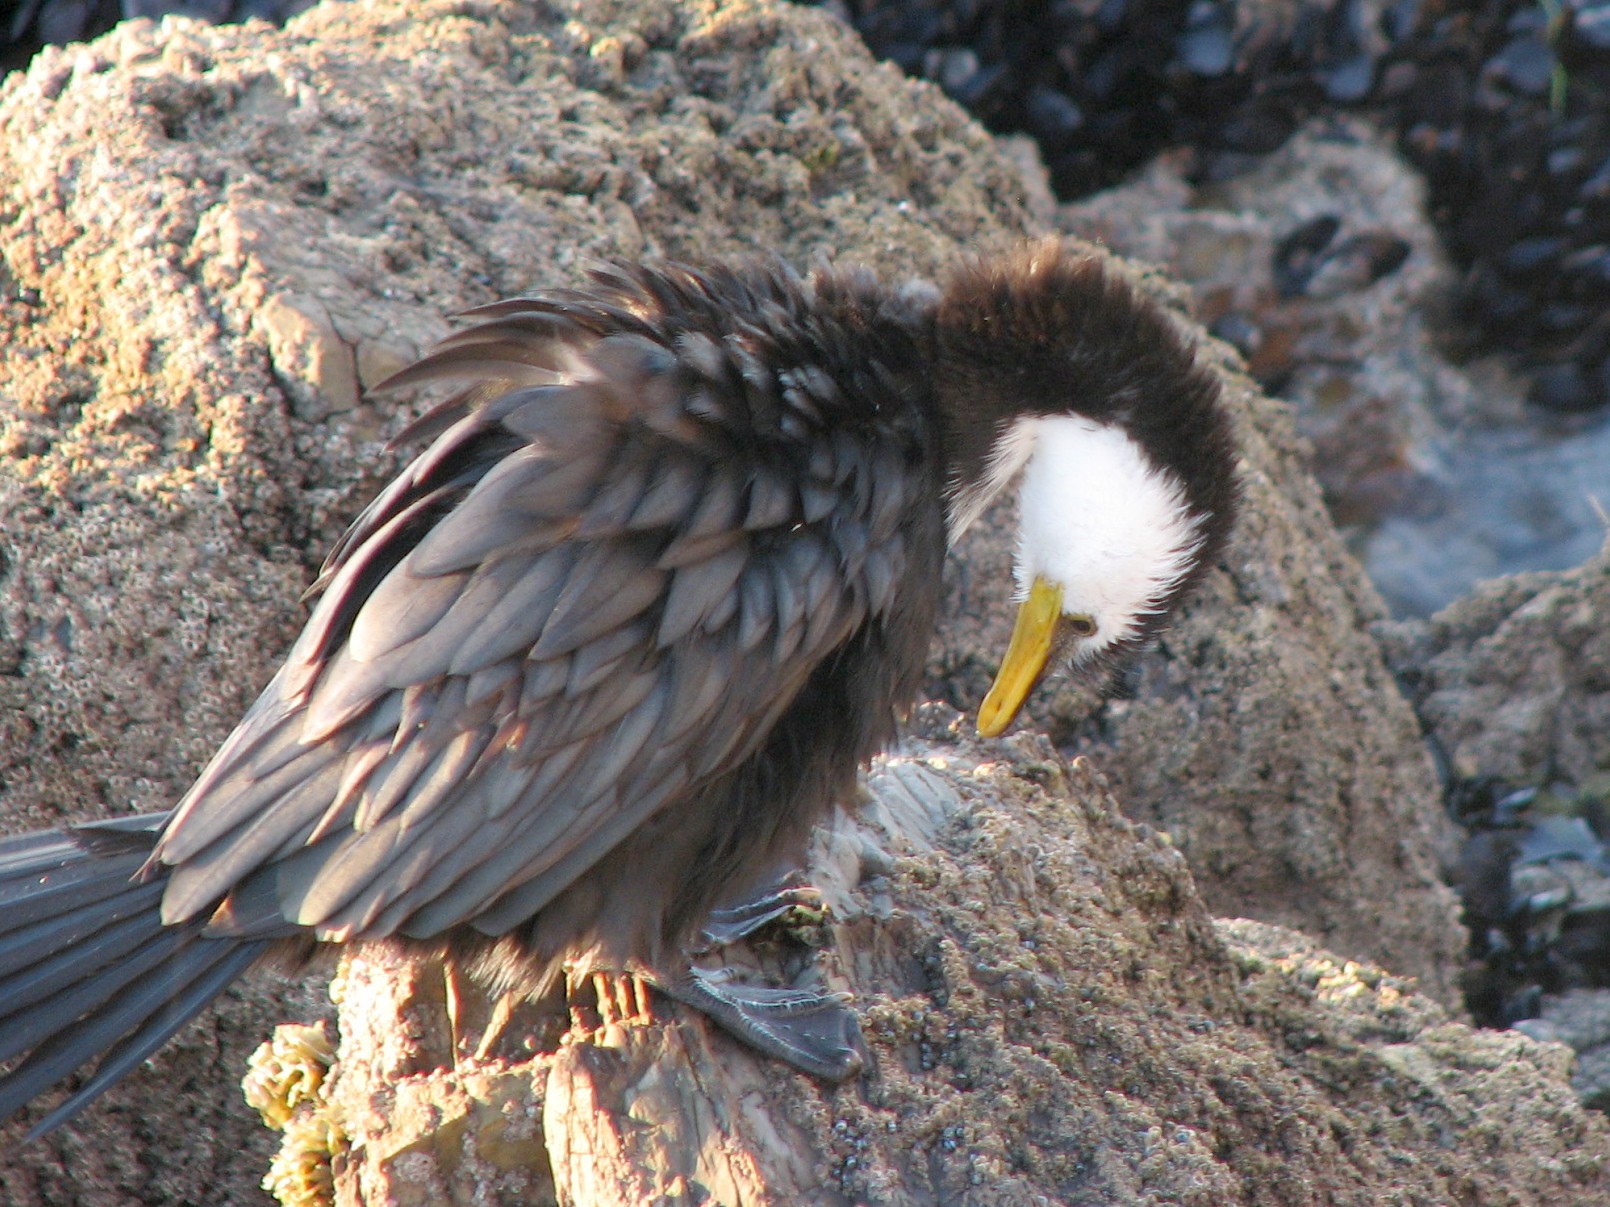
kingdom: Animalia
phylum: Chordata
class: Aves
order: Suliformes
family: Phalacrocoracidae
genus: Microcarbo
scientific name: Microcarbo melanoleucos
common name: Little pied cormorant
